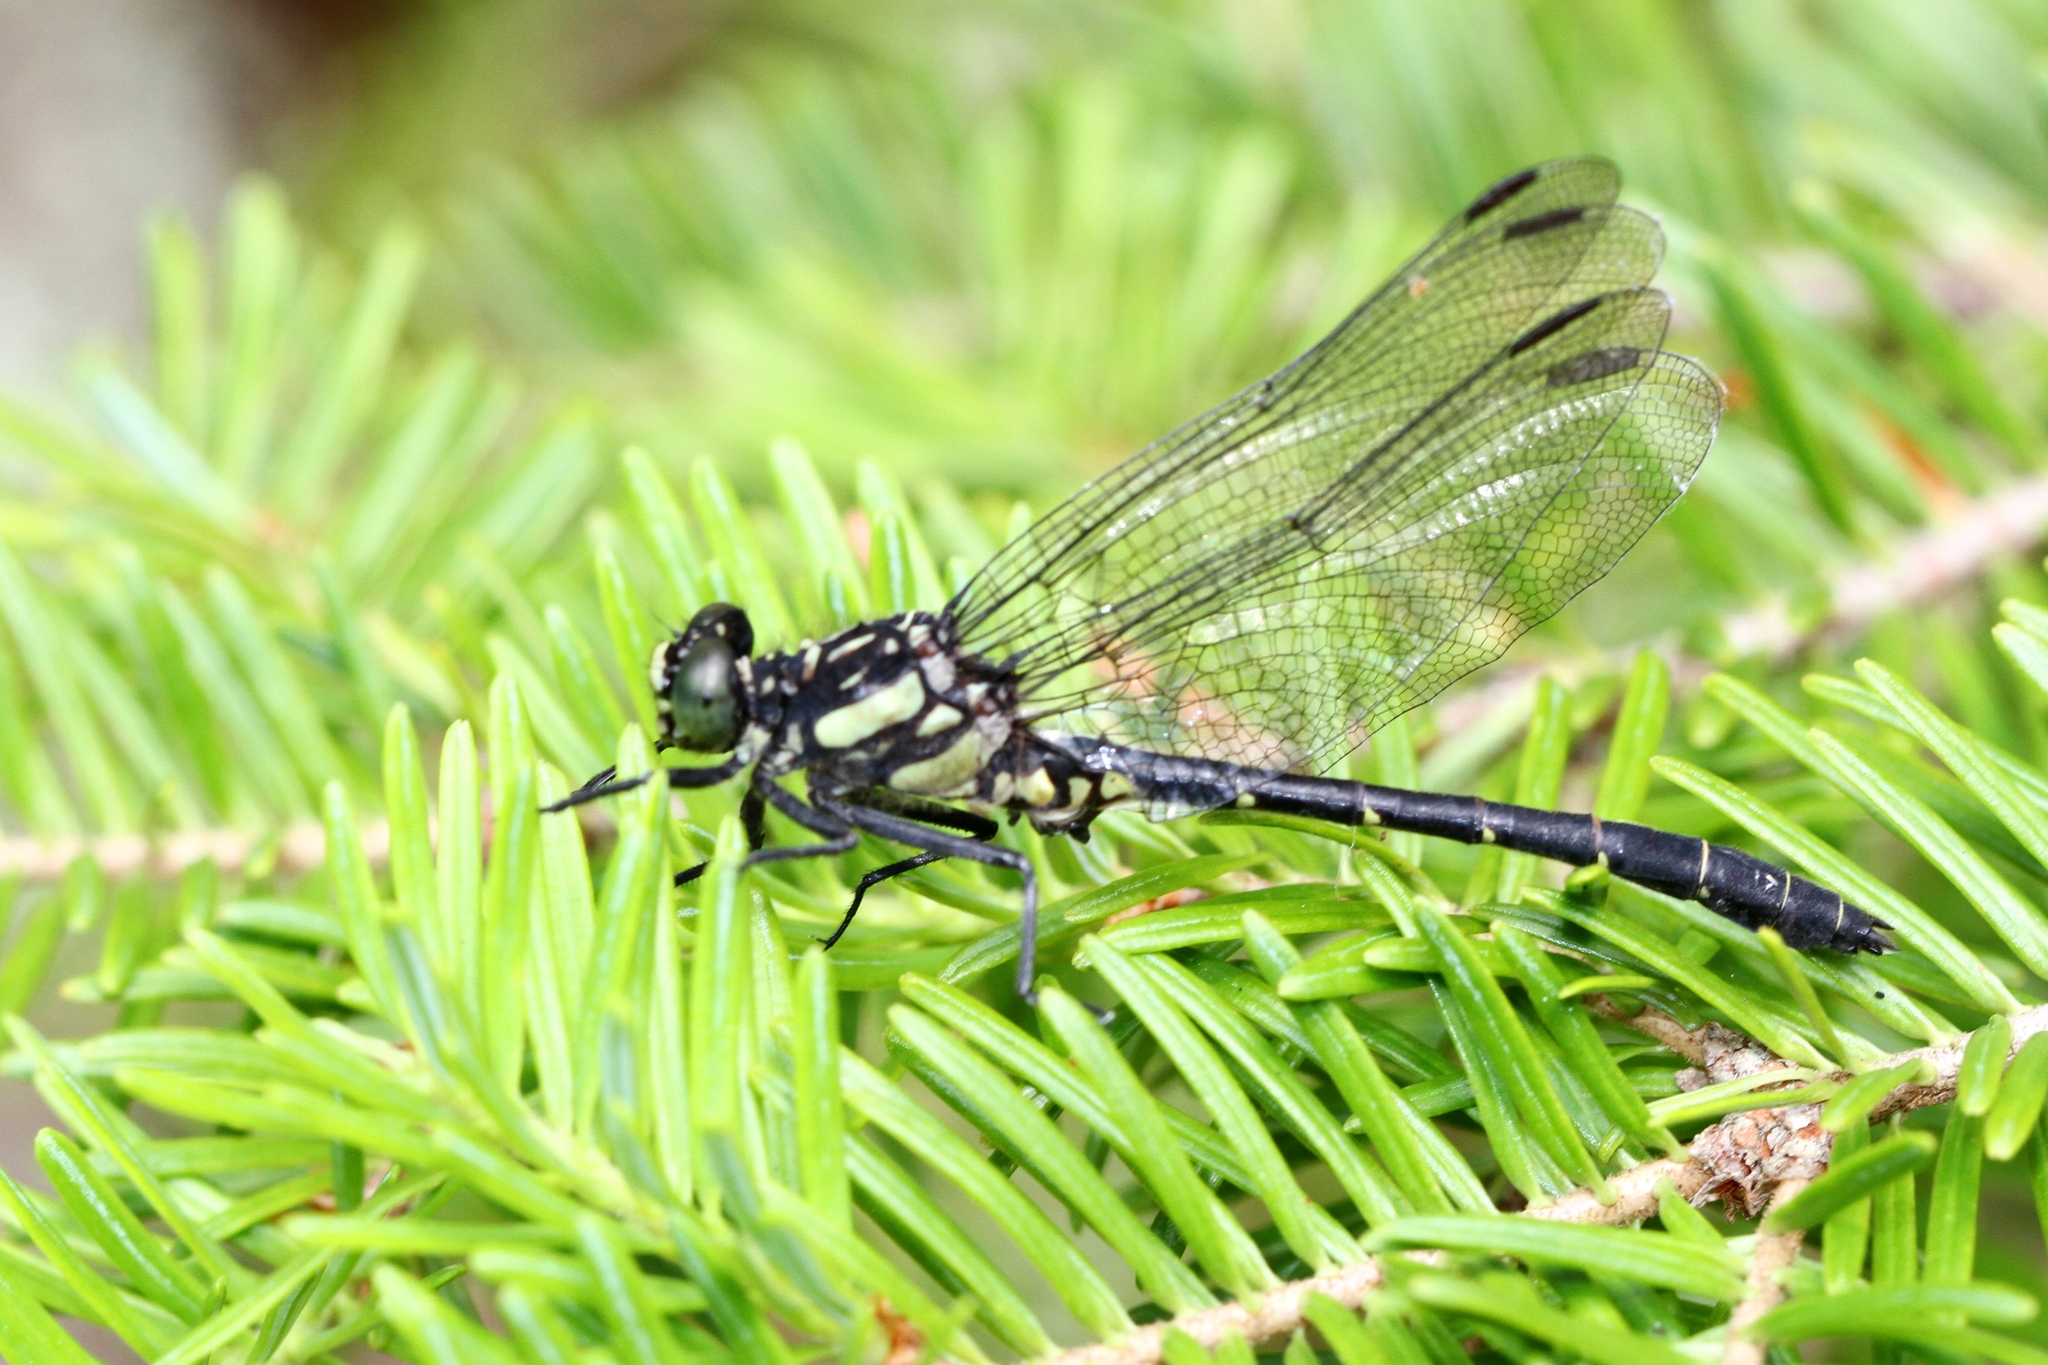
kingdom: Animalia
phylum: Arthropoda
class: Insecta
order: Odonata
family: Gomphidae
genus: Lanthus
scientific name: Lanthus parvulus
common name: Northern pygmy clubtail
